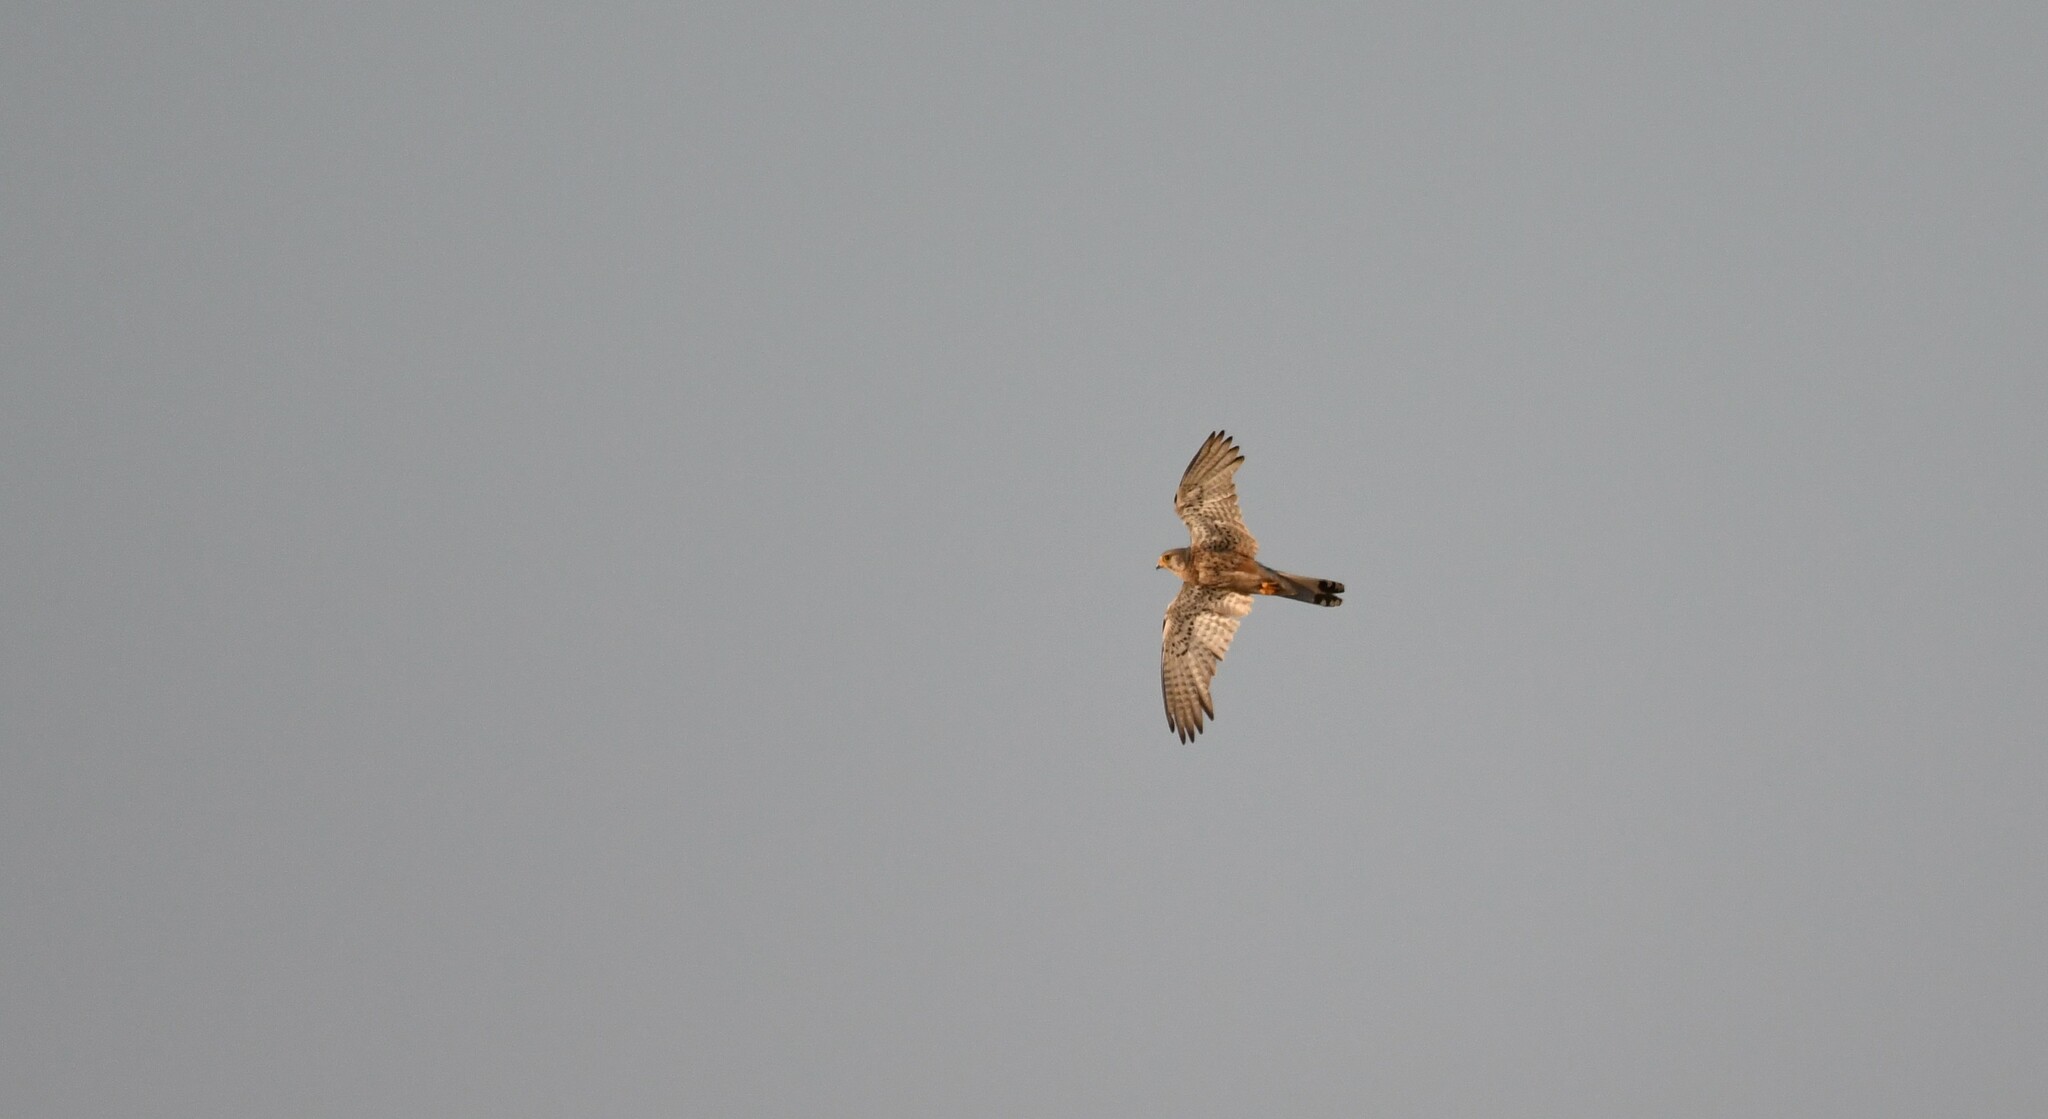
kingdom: Animalia
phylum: Chordata
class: Aves
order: Falconiformes
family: Falconidae
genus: Falco
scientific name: Falco tinnunculus
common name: Common kestrel
